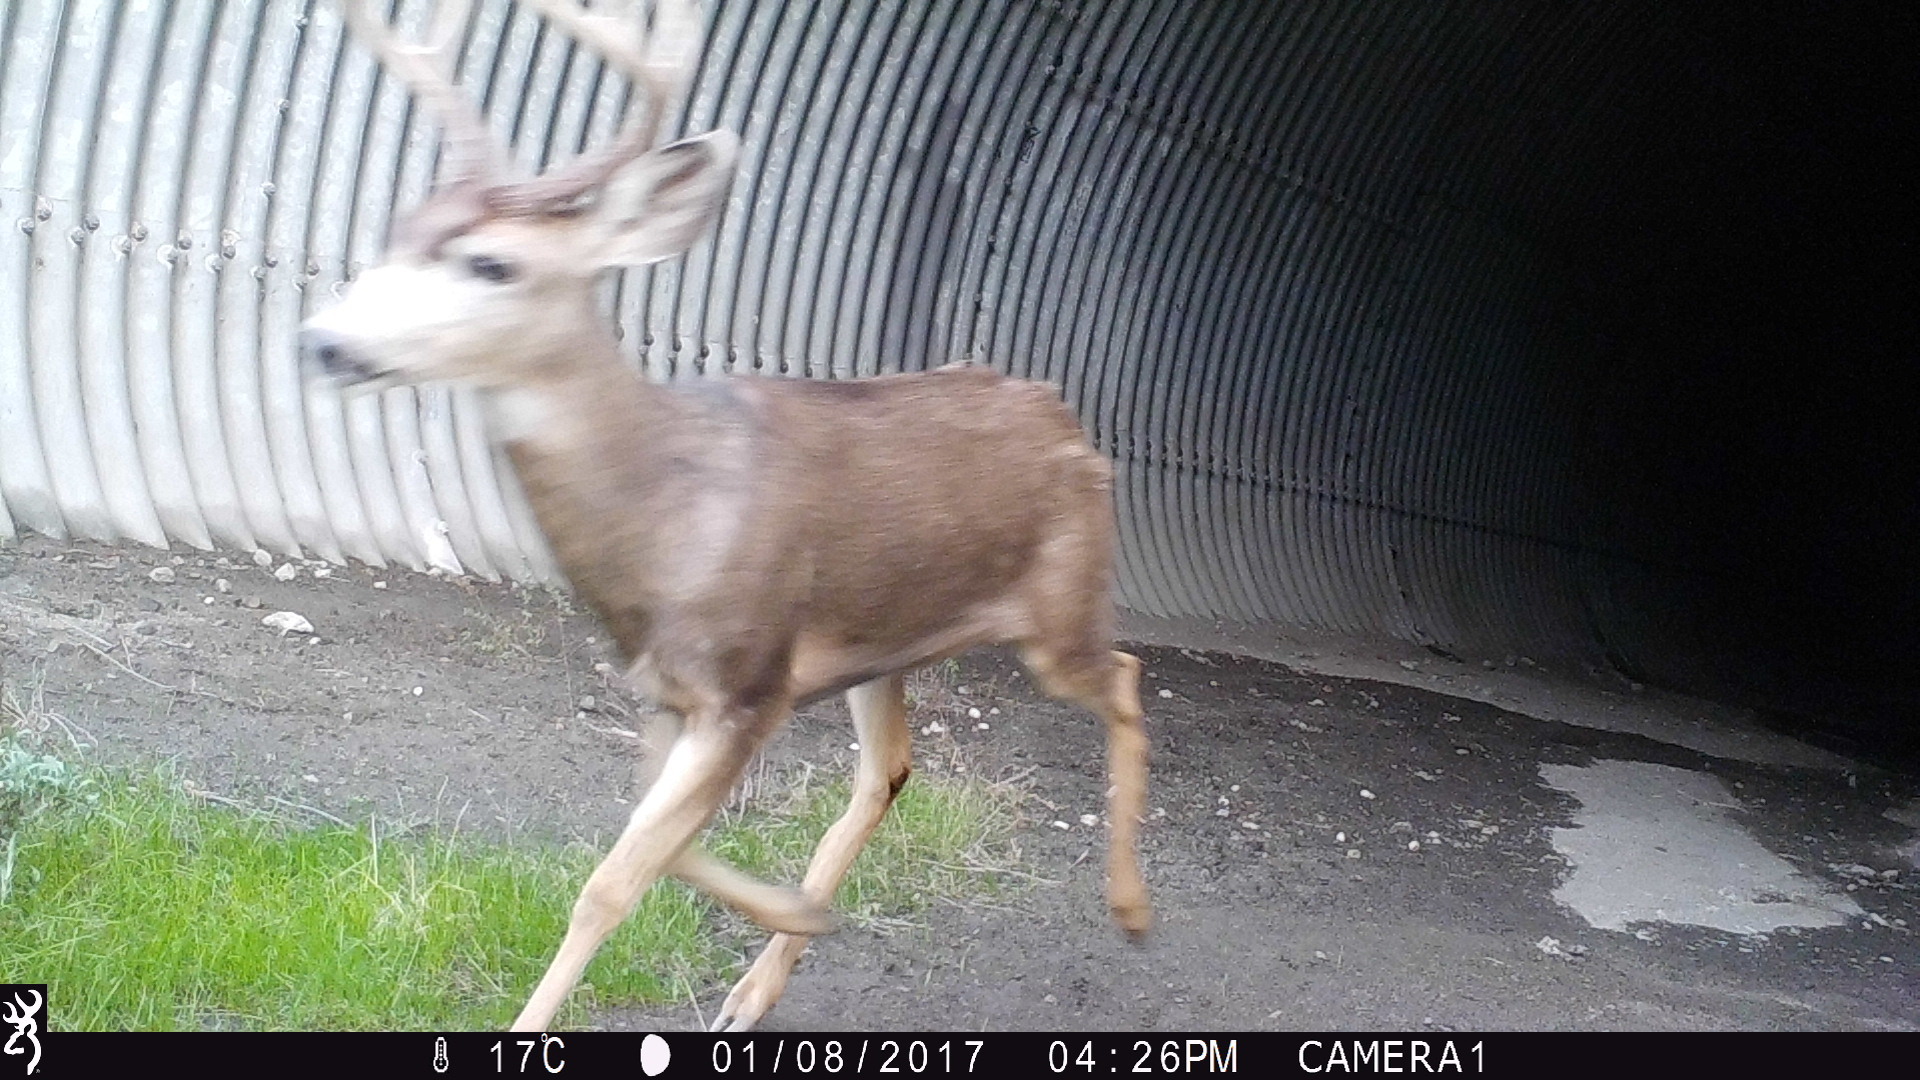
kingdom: Animalia
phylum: Chordata
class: Mammalia
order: Artiodactyla
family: Cervidae
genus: Odocoileus
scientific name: Odocoileus hemionus
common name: Mule deer
